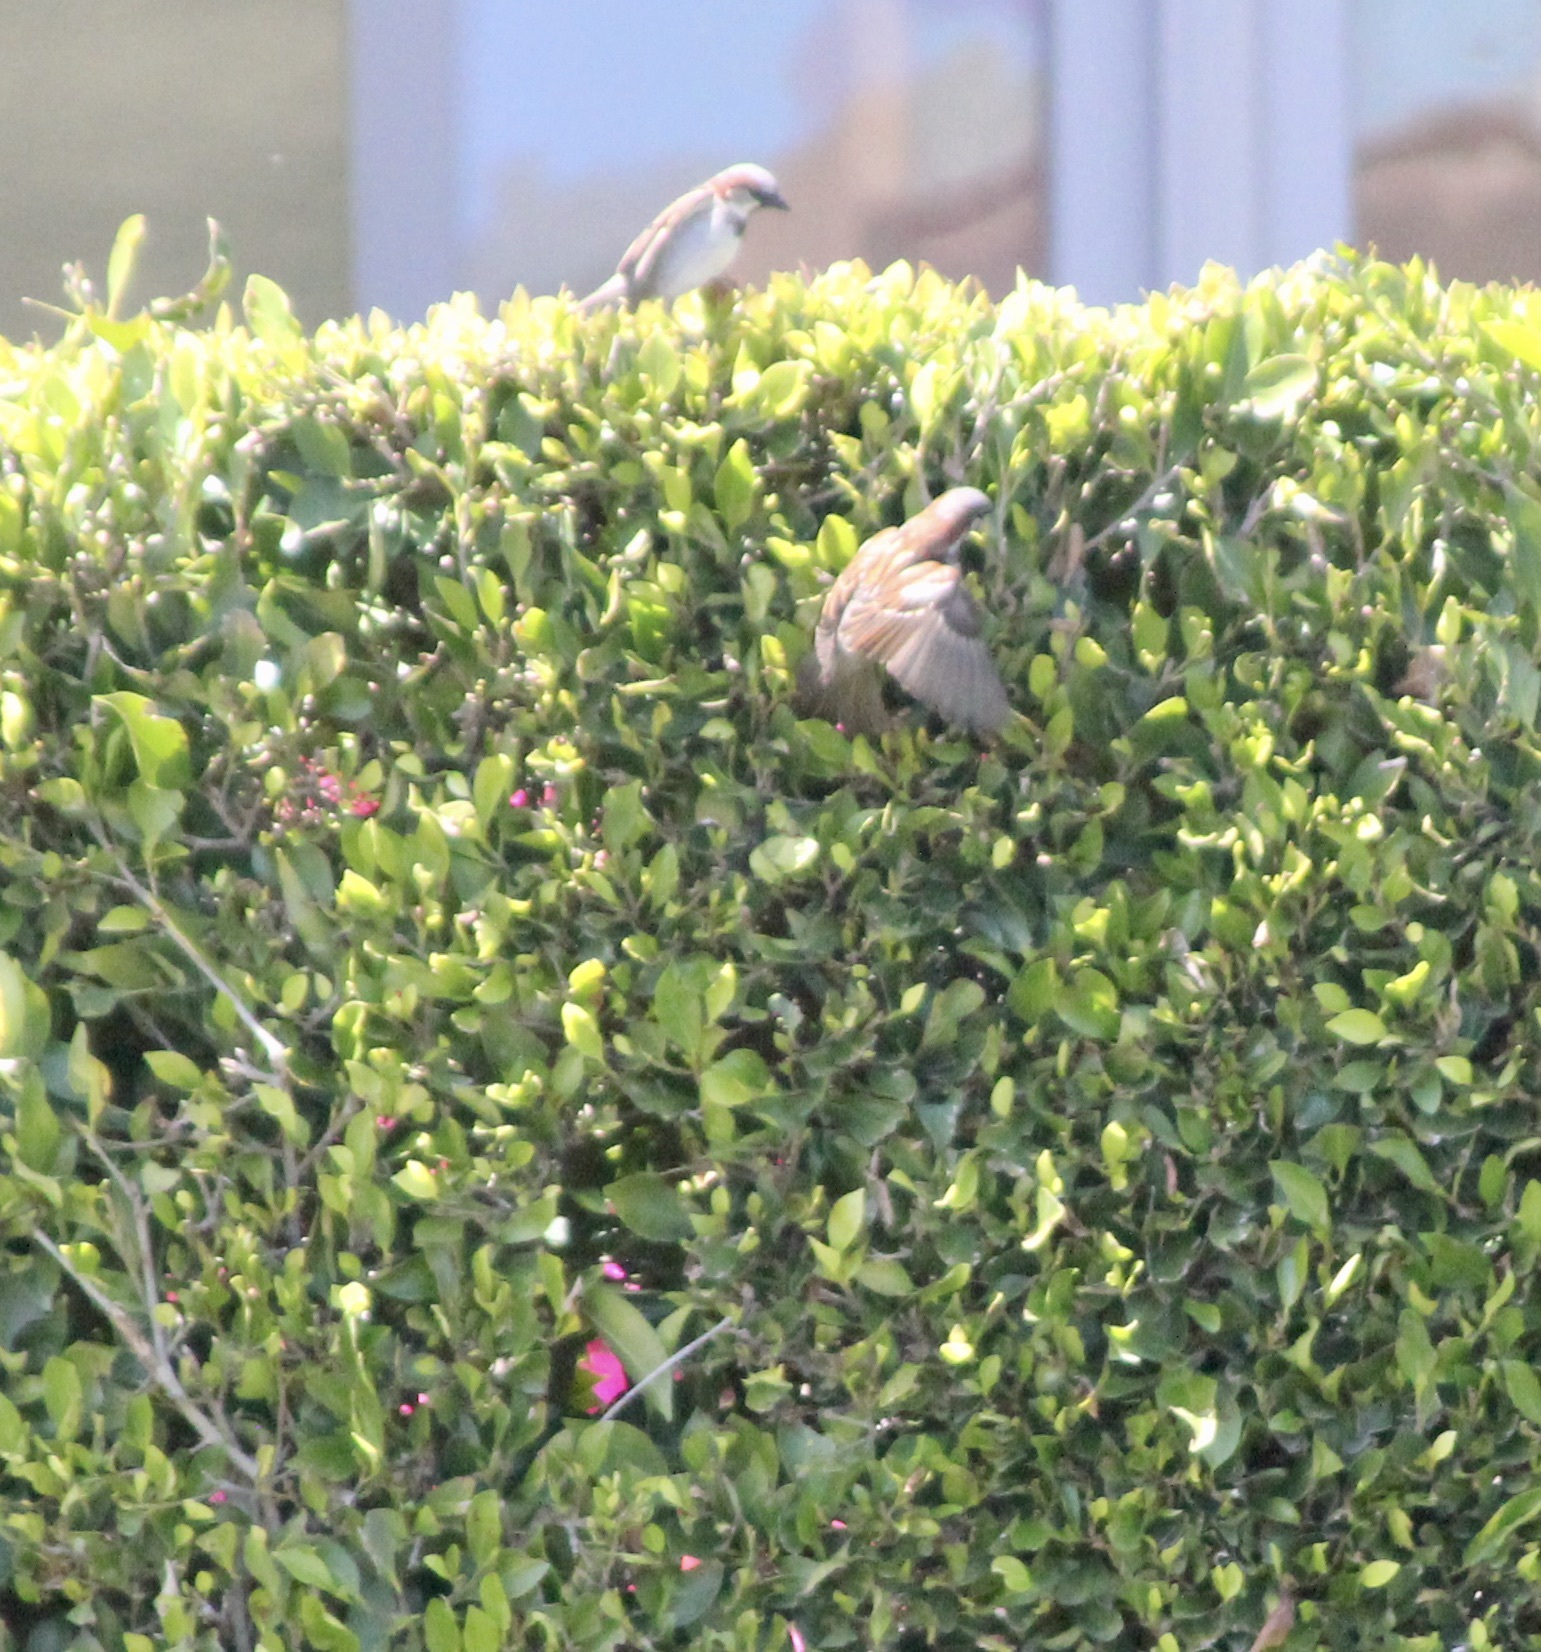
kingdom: Animalia
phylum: Chordata
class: Aves
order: Passeriformes
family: Passeridae
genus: Passer
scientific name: Passer domesticus
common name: House sparrow
